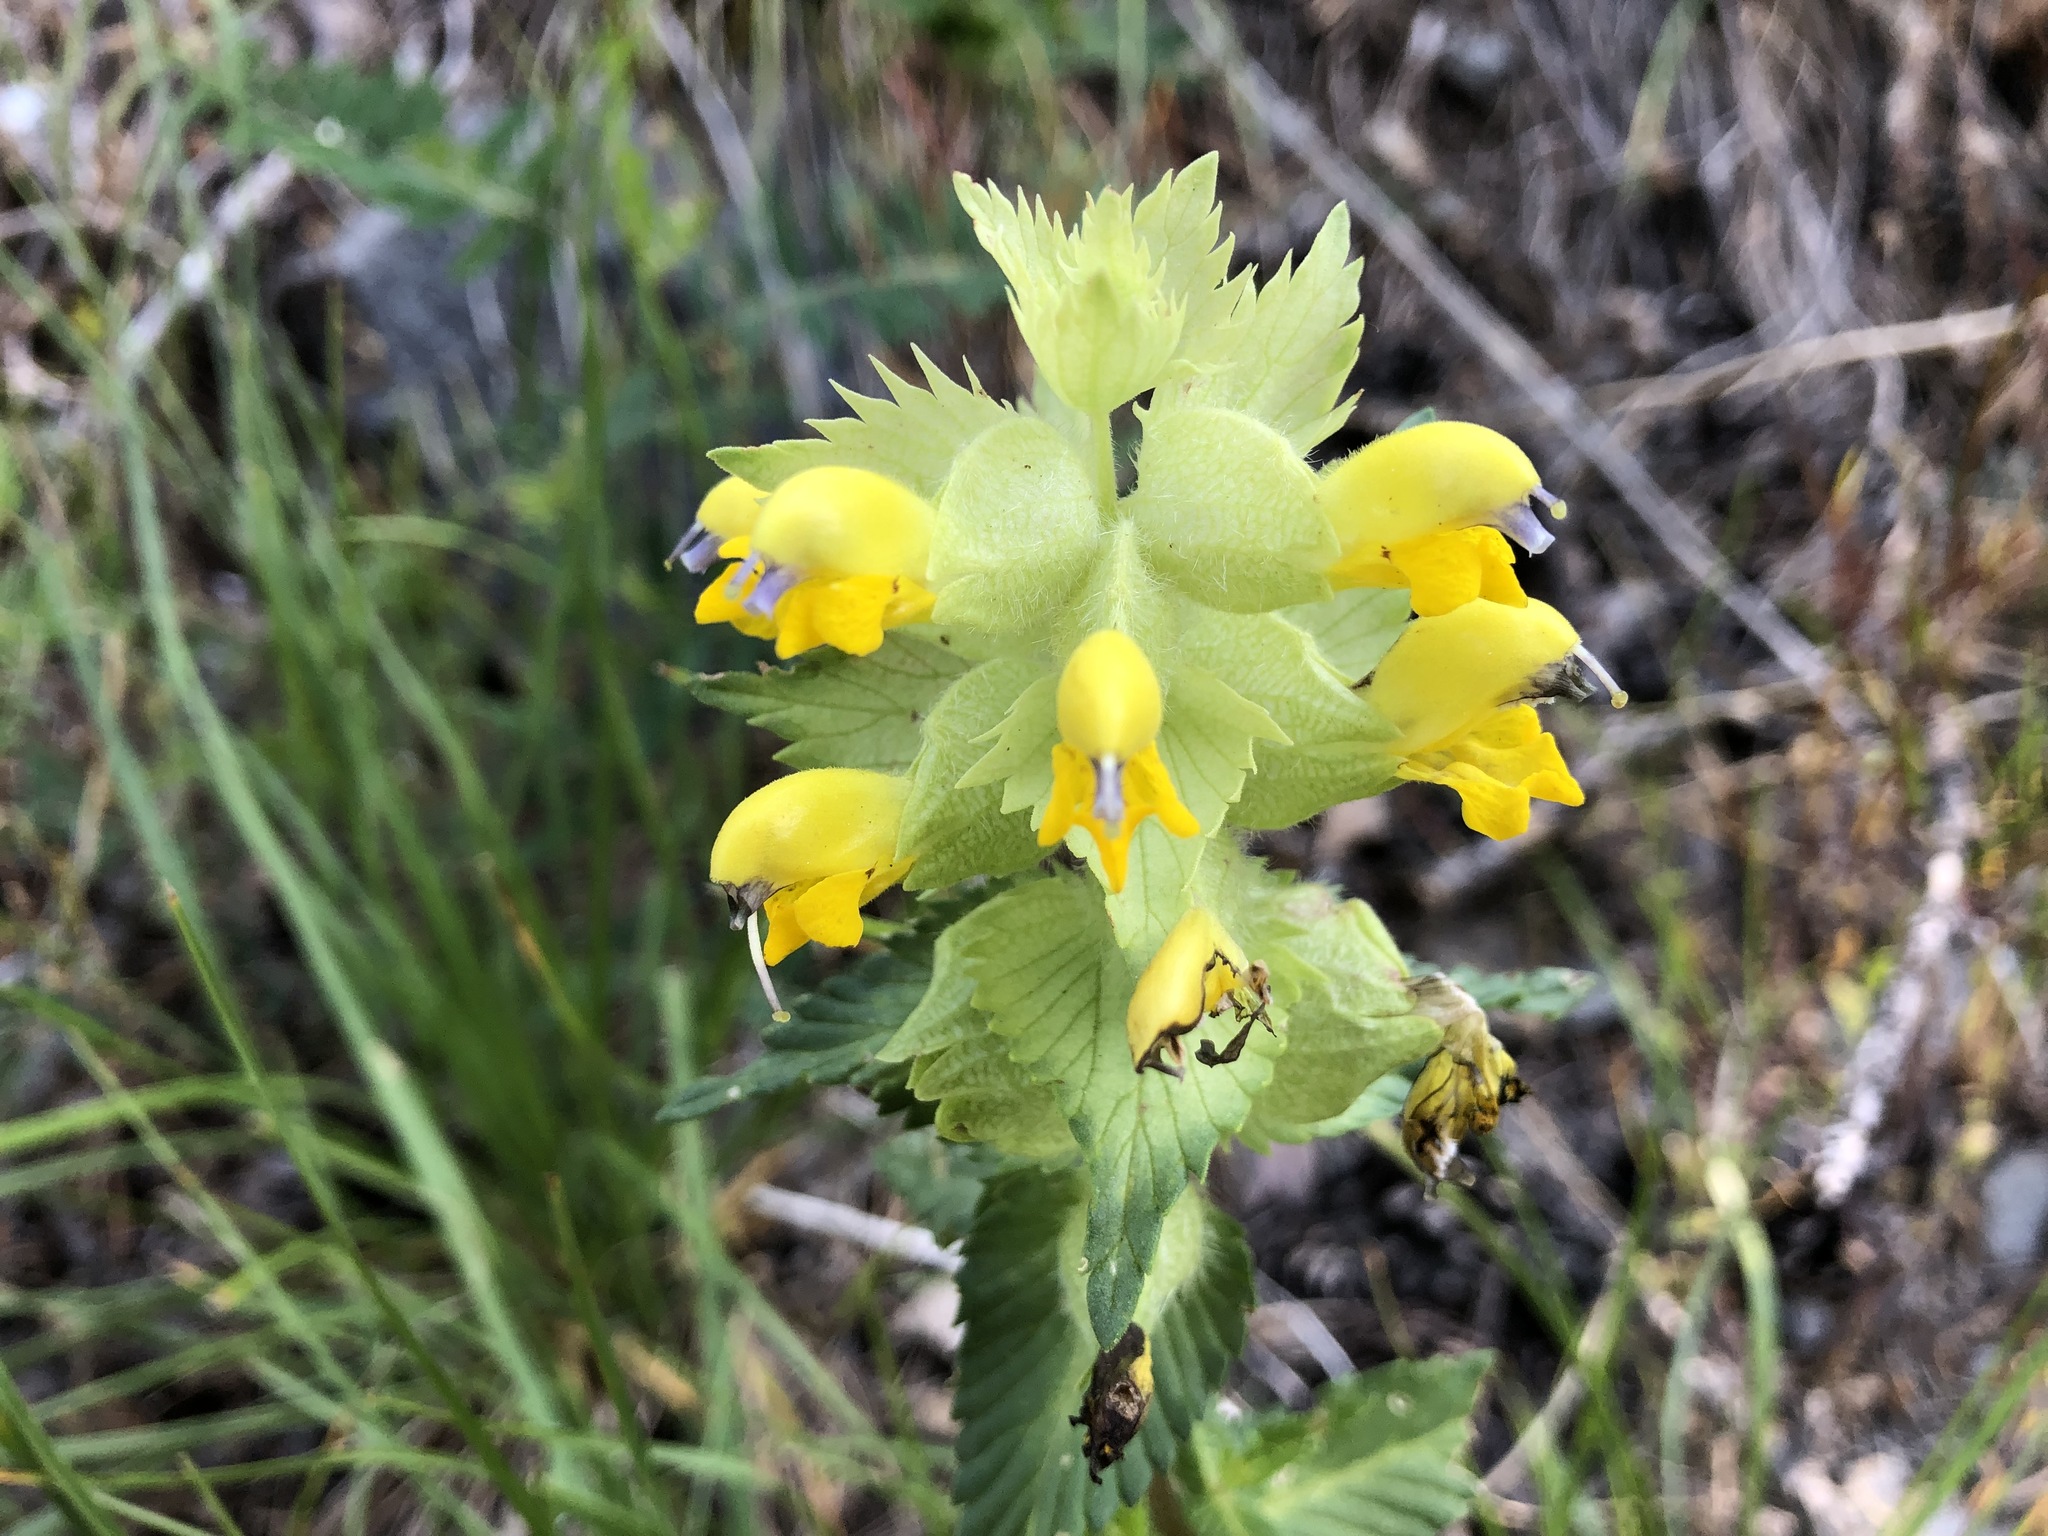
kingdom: Plantae
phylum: Tracheophyta
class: Magnoliopsida
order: Lamiales
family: Orobanchaceae
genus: Rhinanthus
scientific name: Rhinanthus alectorolophus
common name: Greater yellow-rattle
